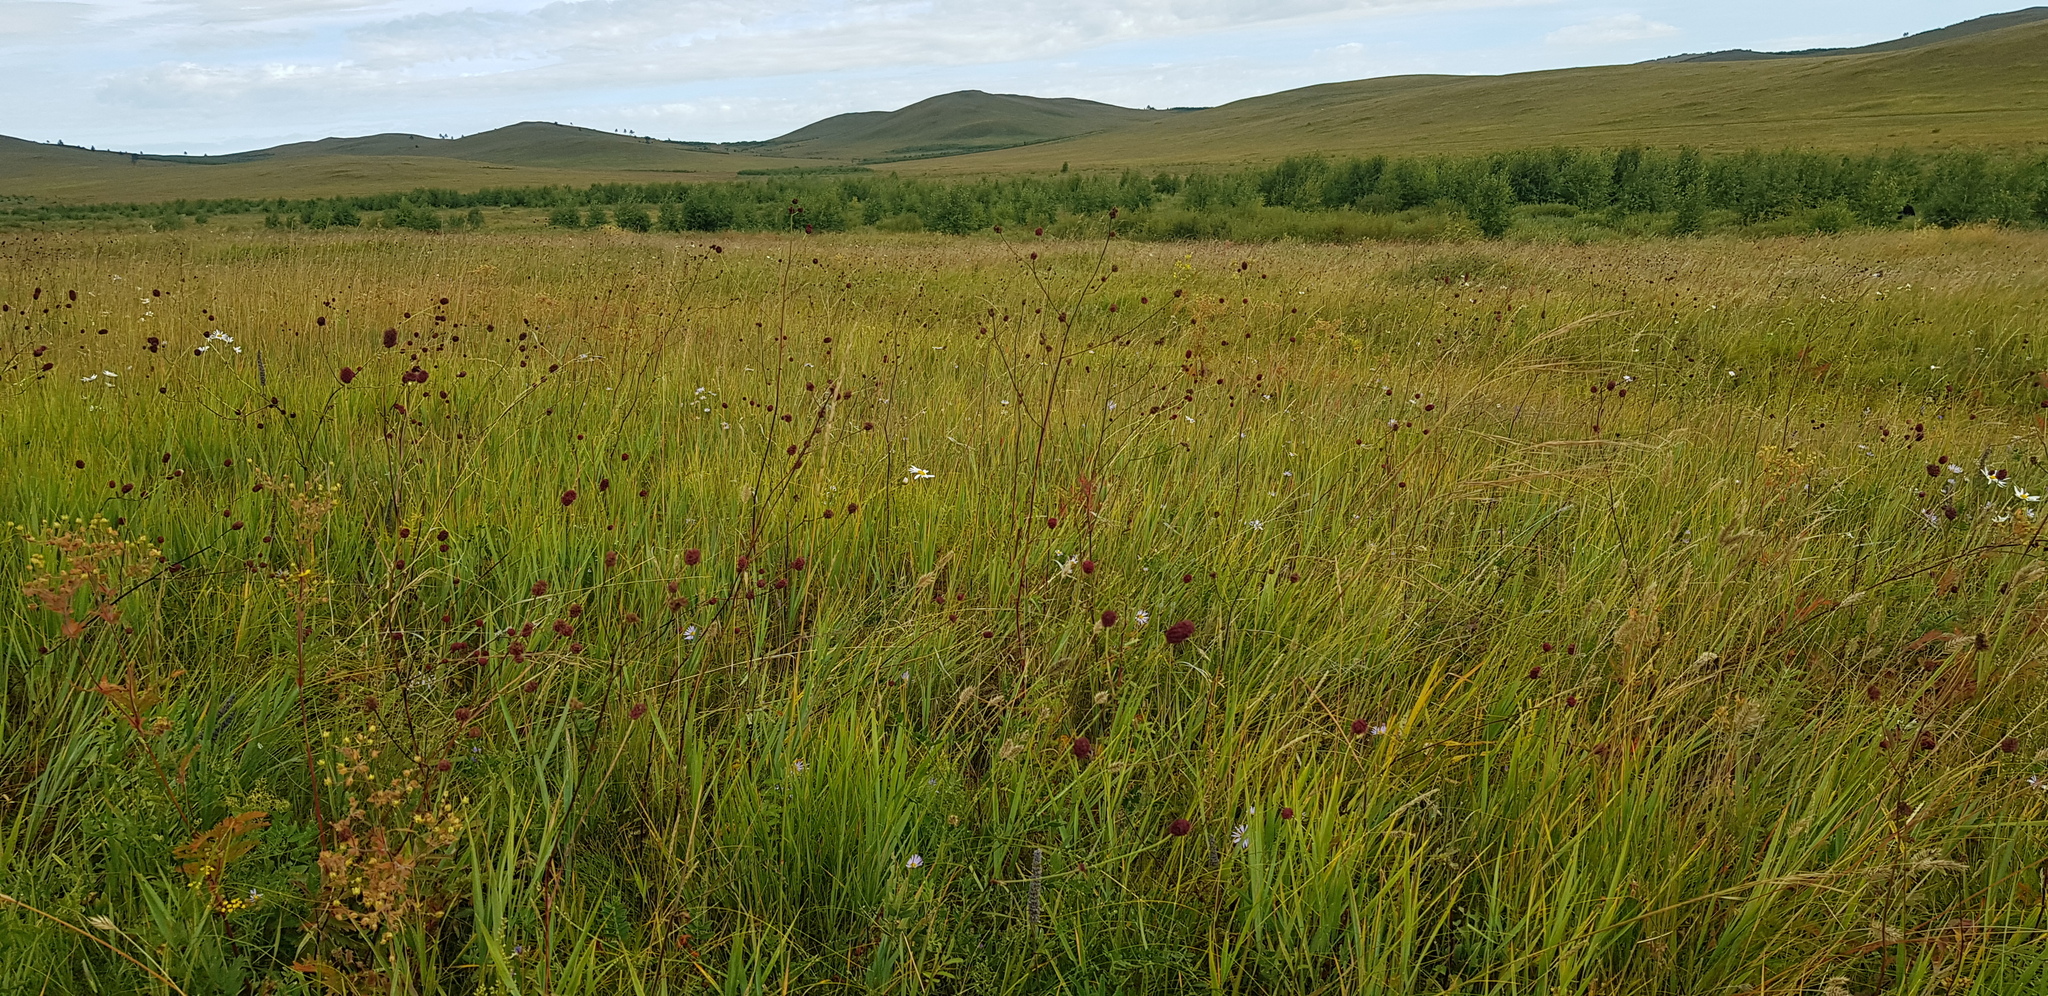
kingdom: Plantae
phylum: Tracheophyta
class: Magnoliopsida
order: Rosales
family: Rosaceae
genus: Poterium
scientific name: Poterium tenuifolium
